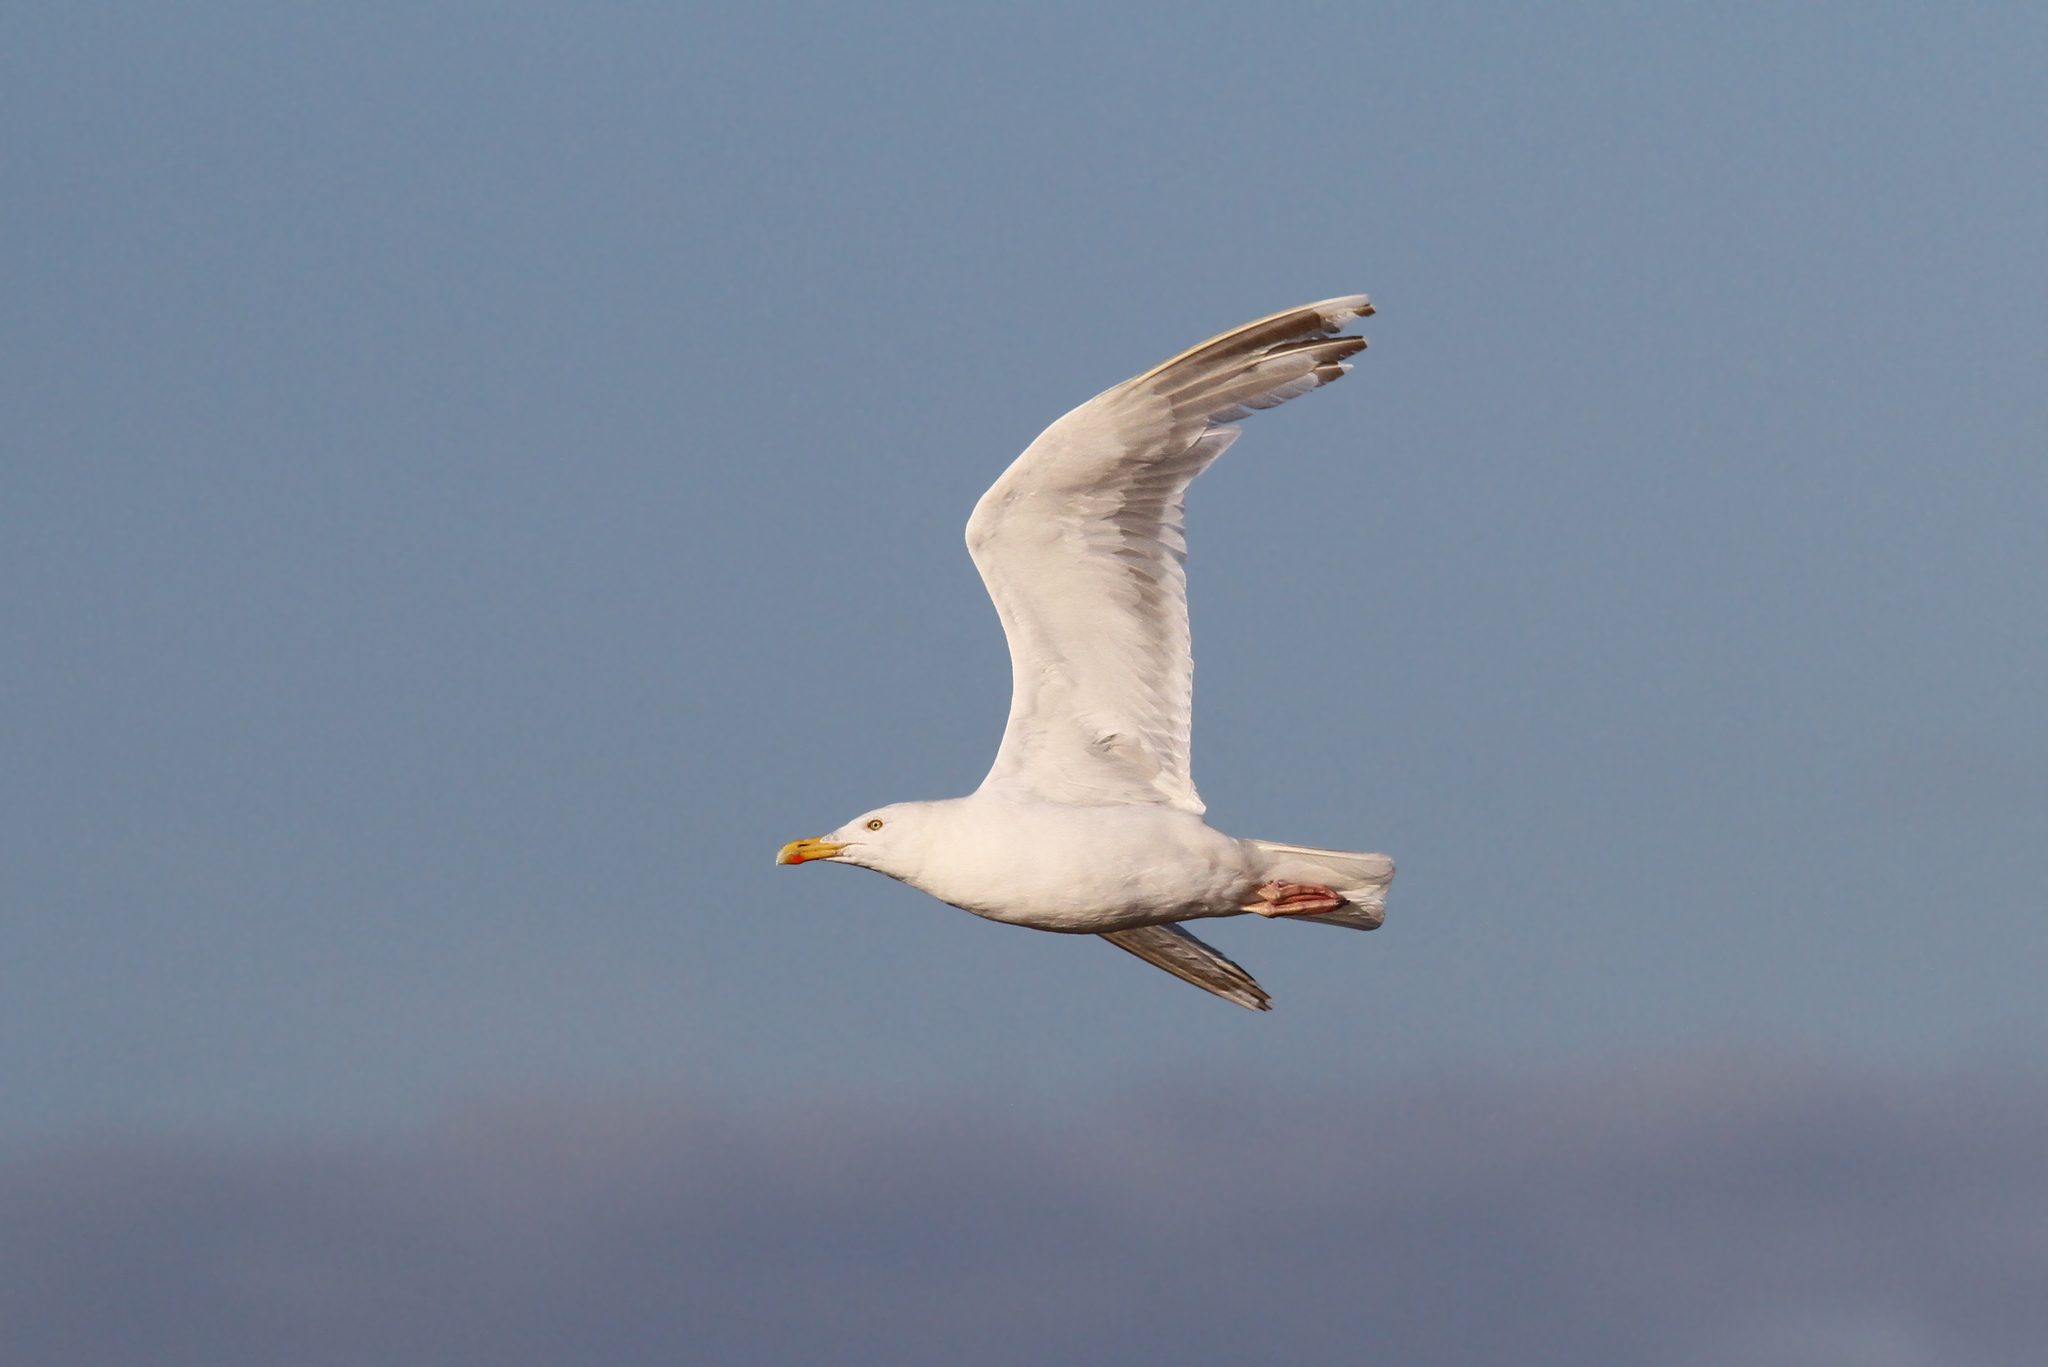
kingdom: Animalia
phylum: Chordata
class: Aves
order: Charadriiformes
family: Laridae
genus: Larus
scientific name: Larus argentatus
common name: Herring gull
